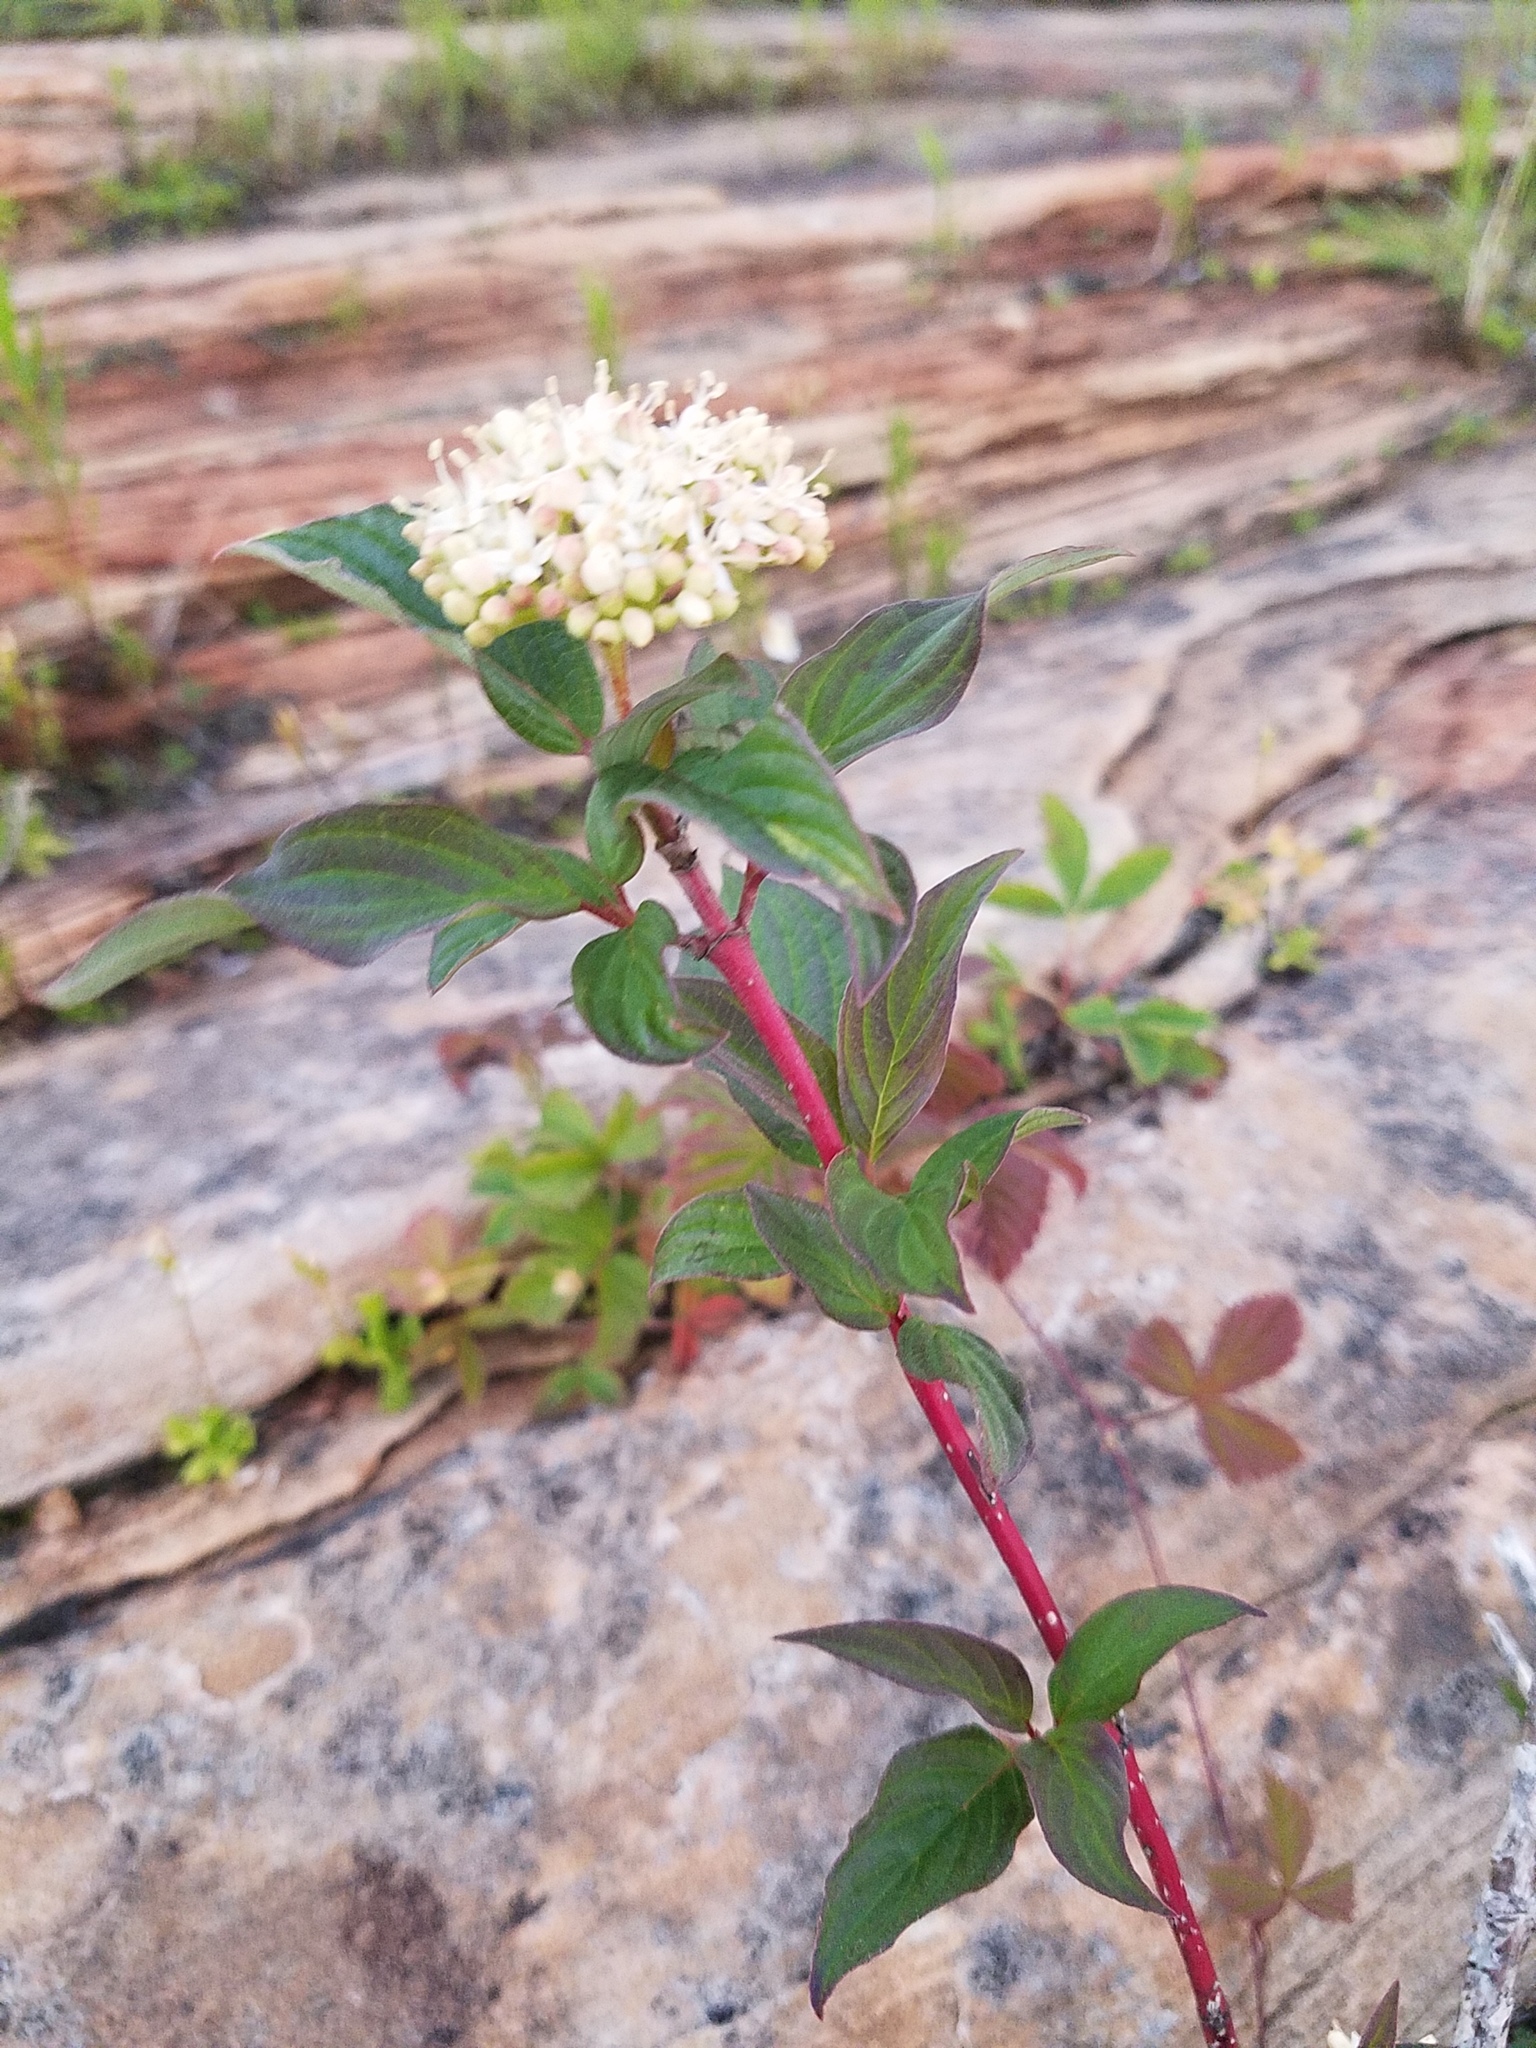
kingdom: Plantae
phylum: Tracheophyta
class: Magnoliopsida
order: Cornales
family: Cornaceae
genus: Cornus
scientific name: Cornus sericea
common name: Red-osier dogwood
